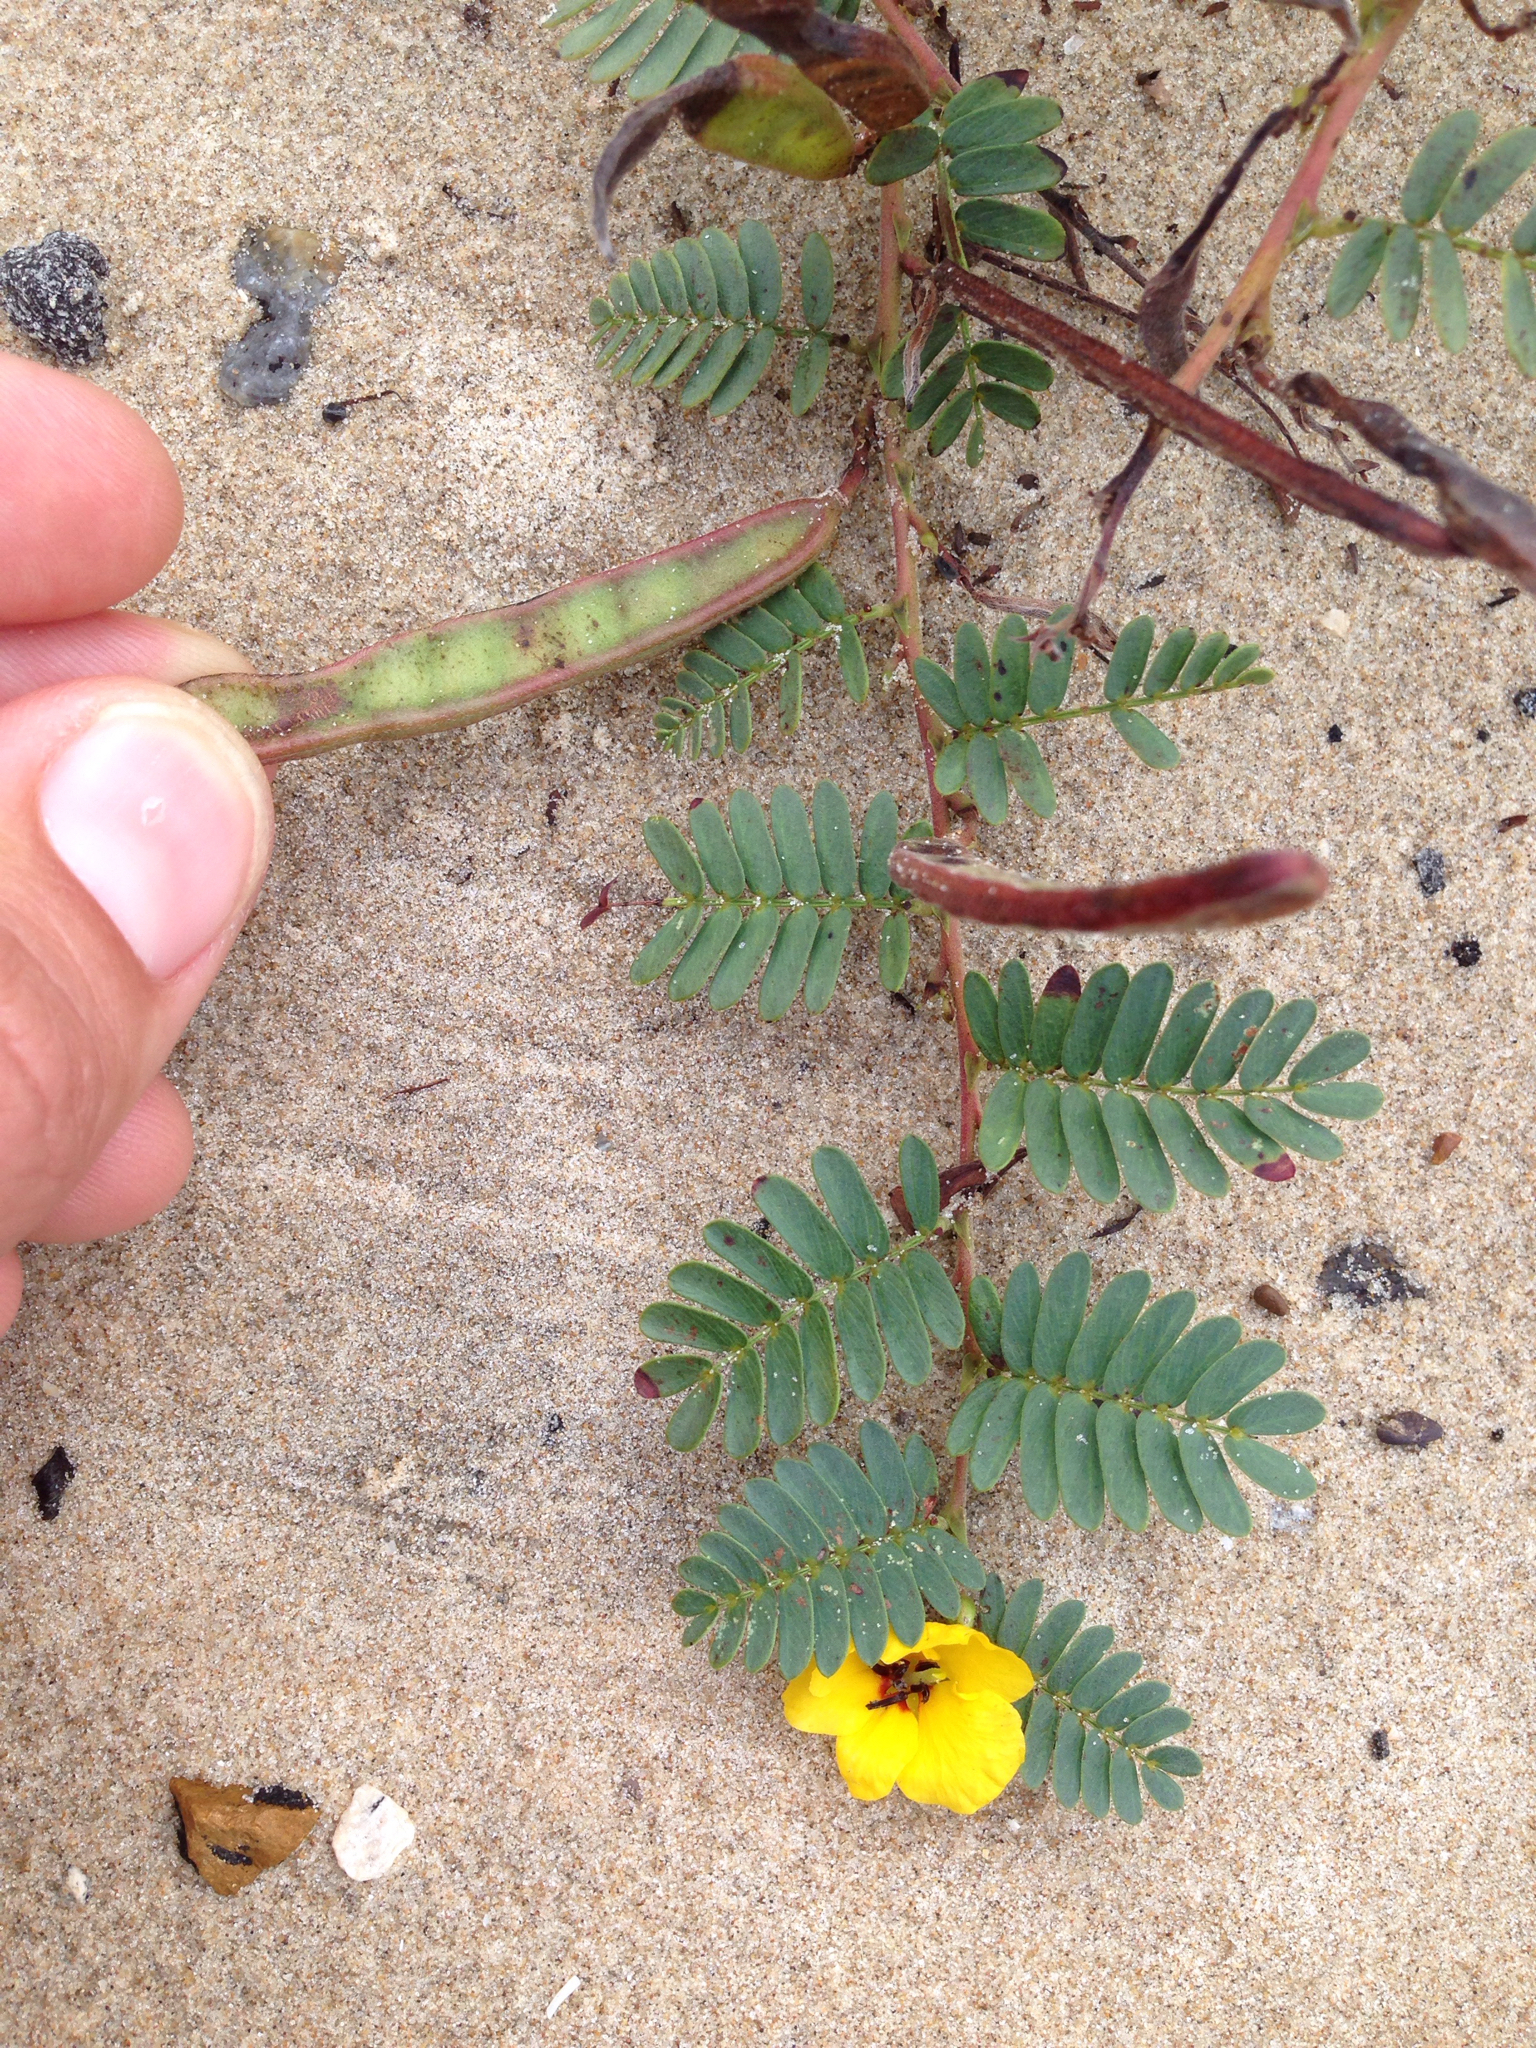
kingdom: Plantae
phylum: Tracheophyta
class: Magnoliopsida
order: Fabales
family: Fabaceae
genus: Chamaecrista
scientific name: Chamaecrista fasciculata
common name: Golden cassia
